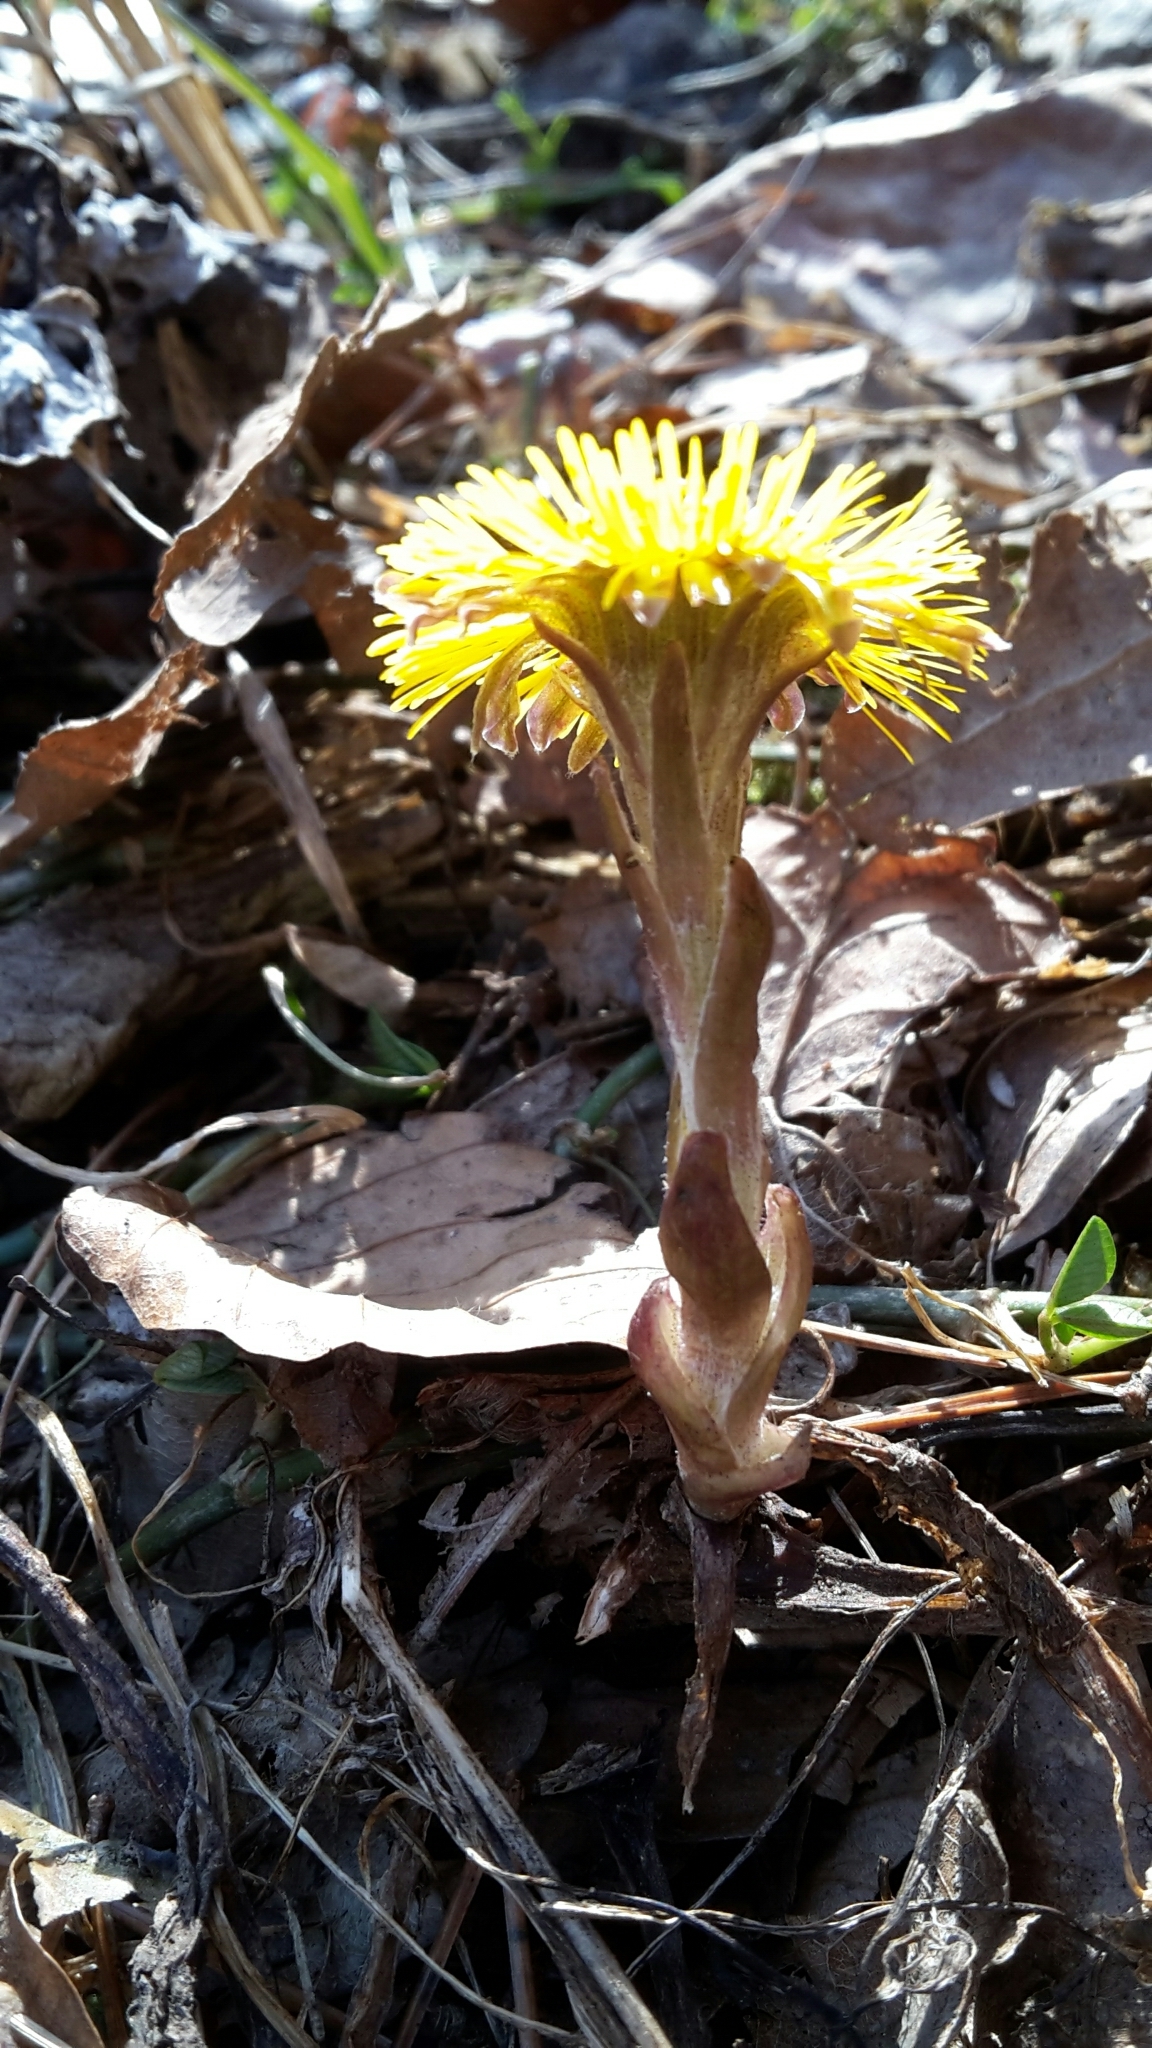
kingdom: Plantae
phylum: Tracheophyta
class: Magnoliopsida
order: Asterales
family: Asteraceae
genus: Tussilago
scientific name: Tussilago farfara
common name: Coltsfoot
